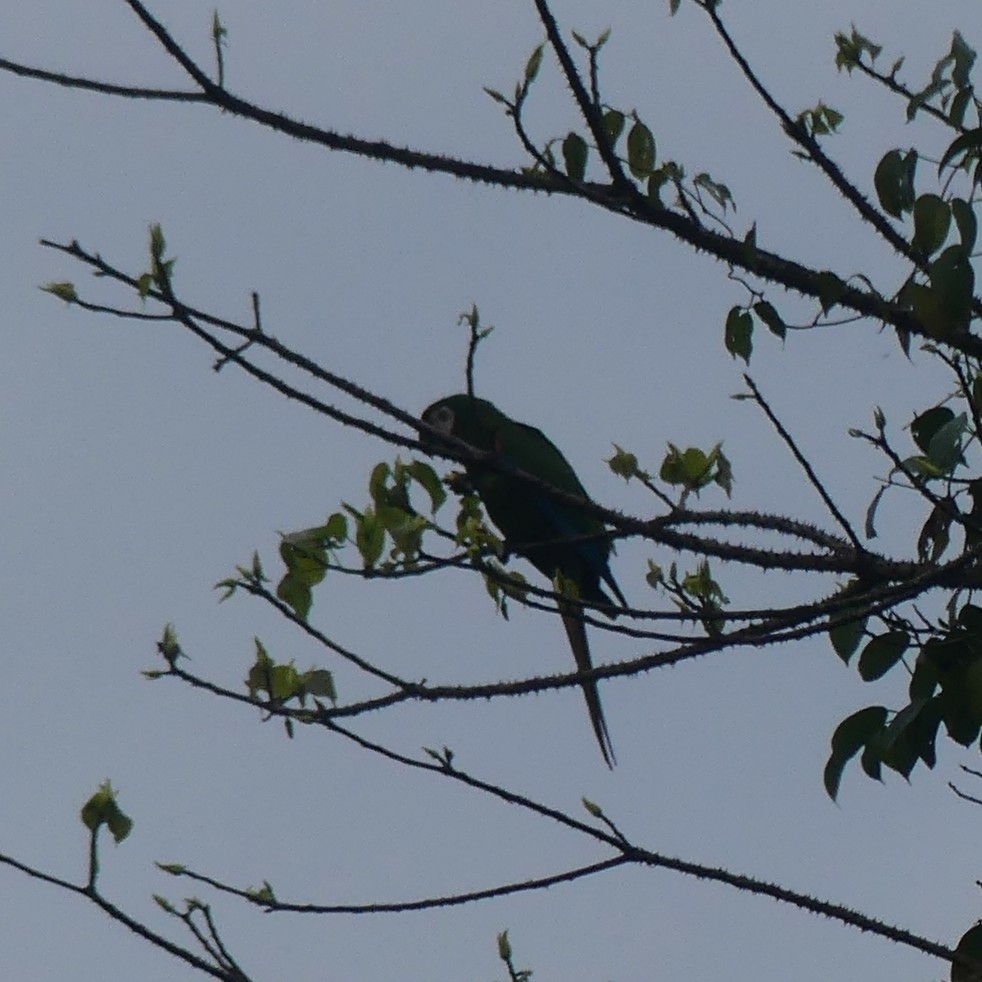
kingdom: Animalia
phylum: Chordata
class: Aves
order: Psittaciformes
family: Psittacidae
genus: Ara
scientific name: Ara severus
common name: Chestnut-fronted macaw
